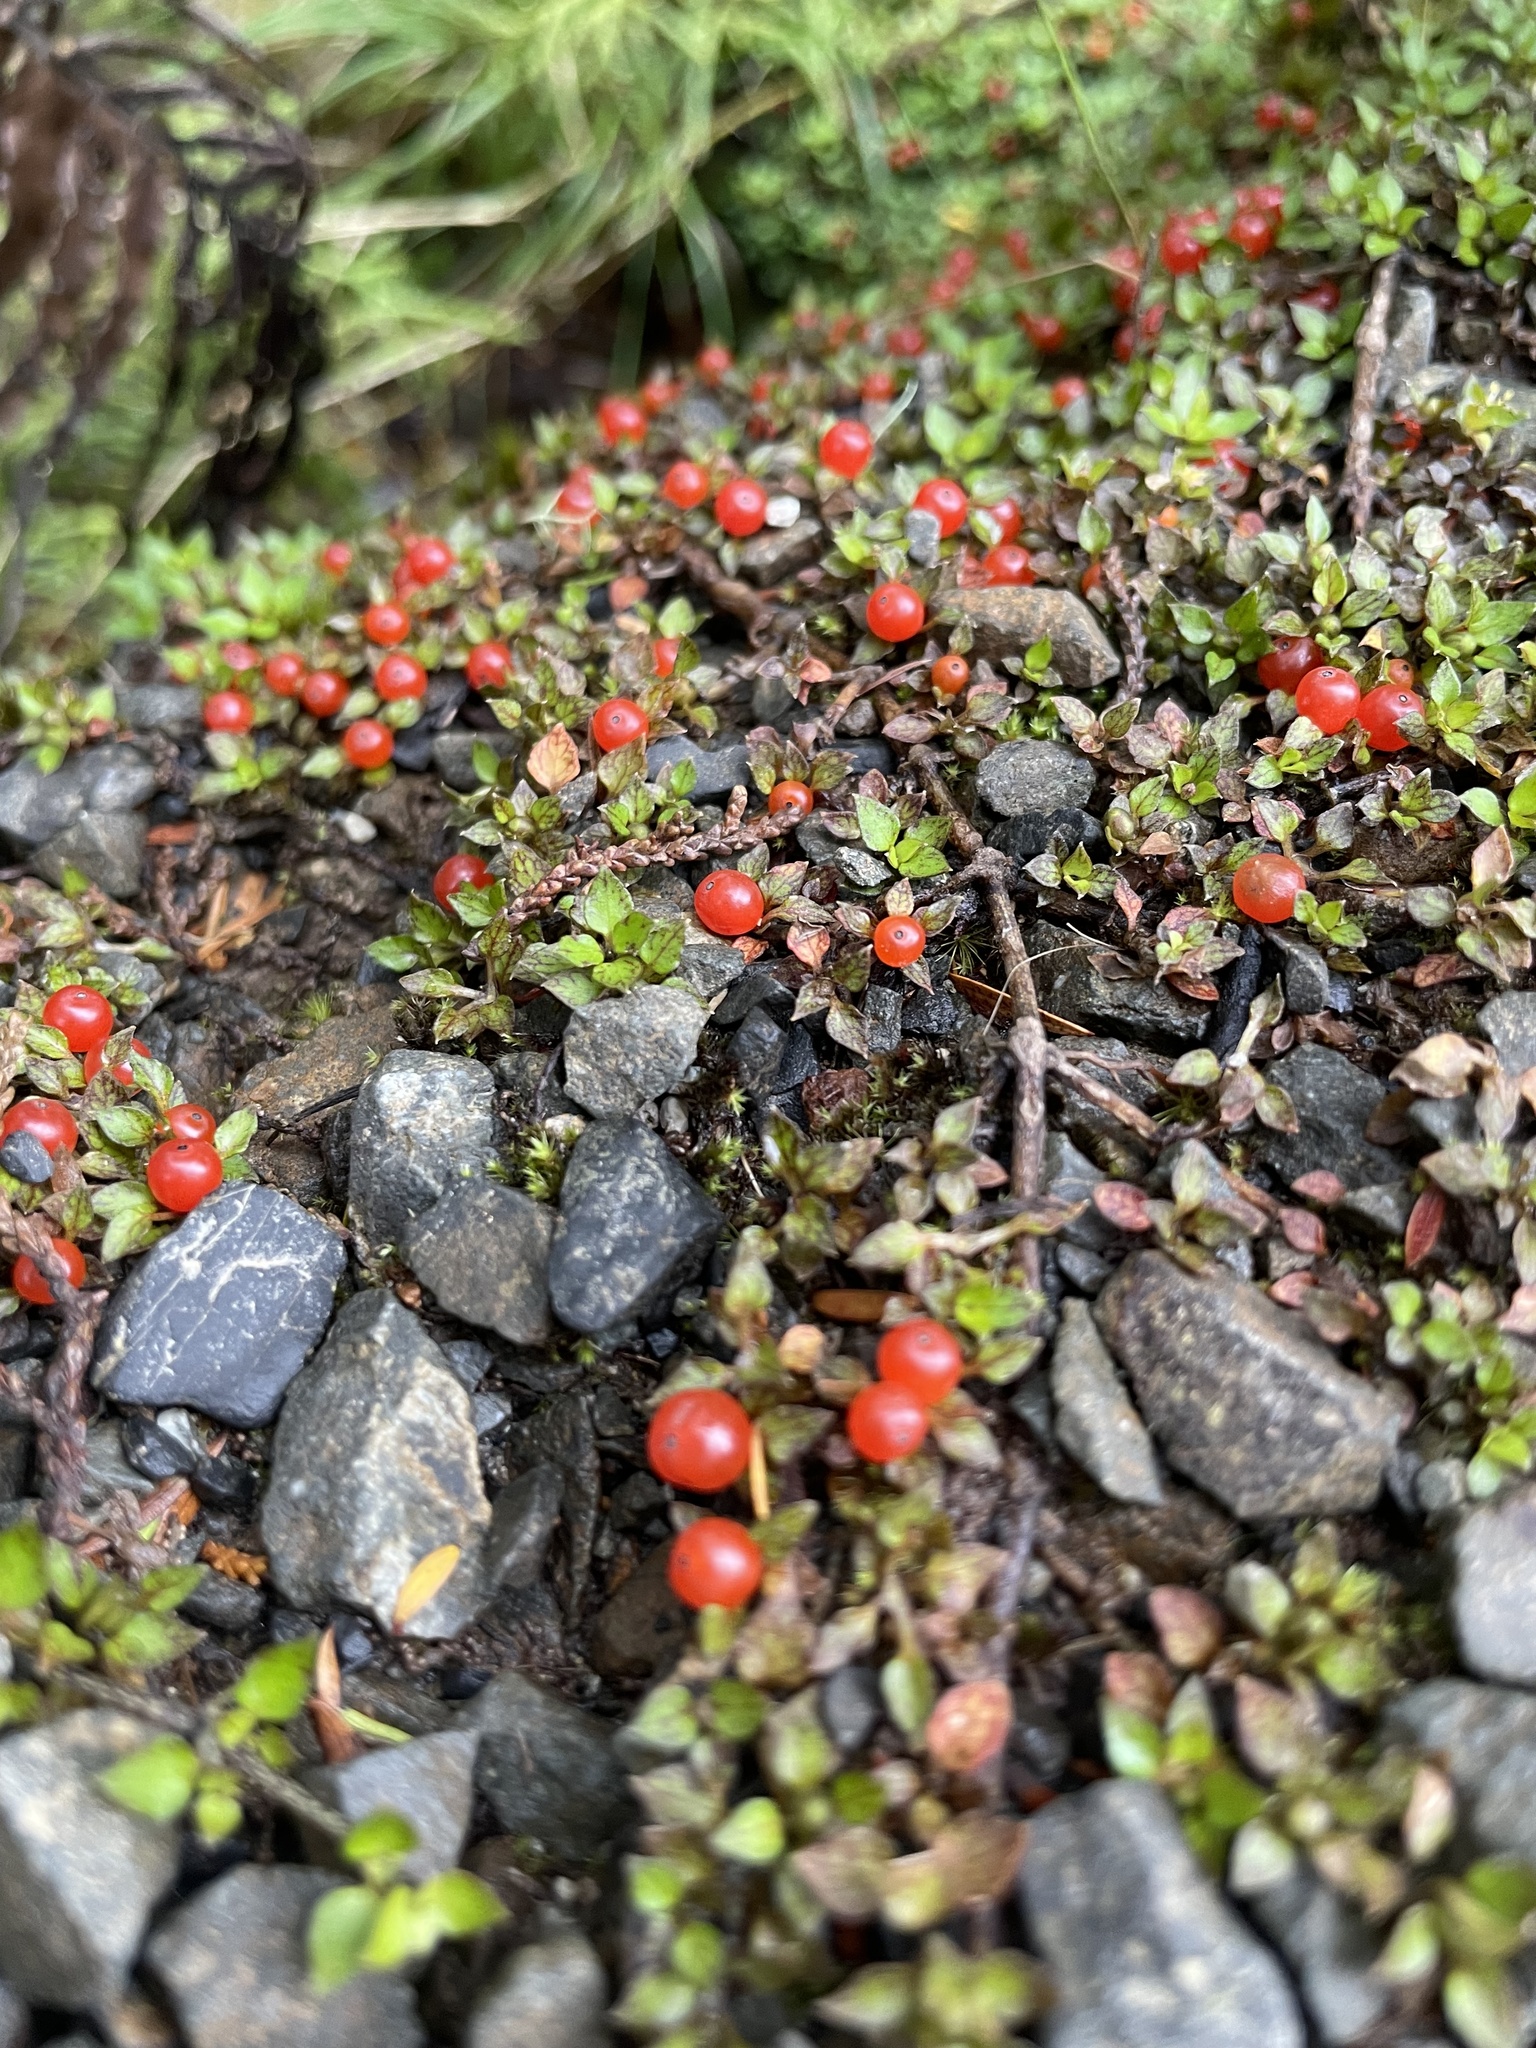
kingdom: Plantae
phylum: Tracheophyta
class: Magnoliopsida
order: Gentianales
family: Rubiaceae
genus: Nertera
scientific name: Nertera granadensis
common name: Beadplant
